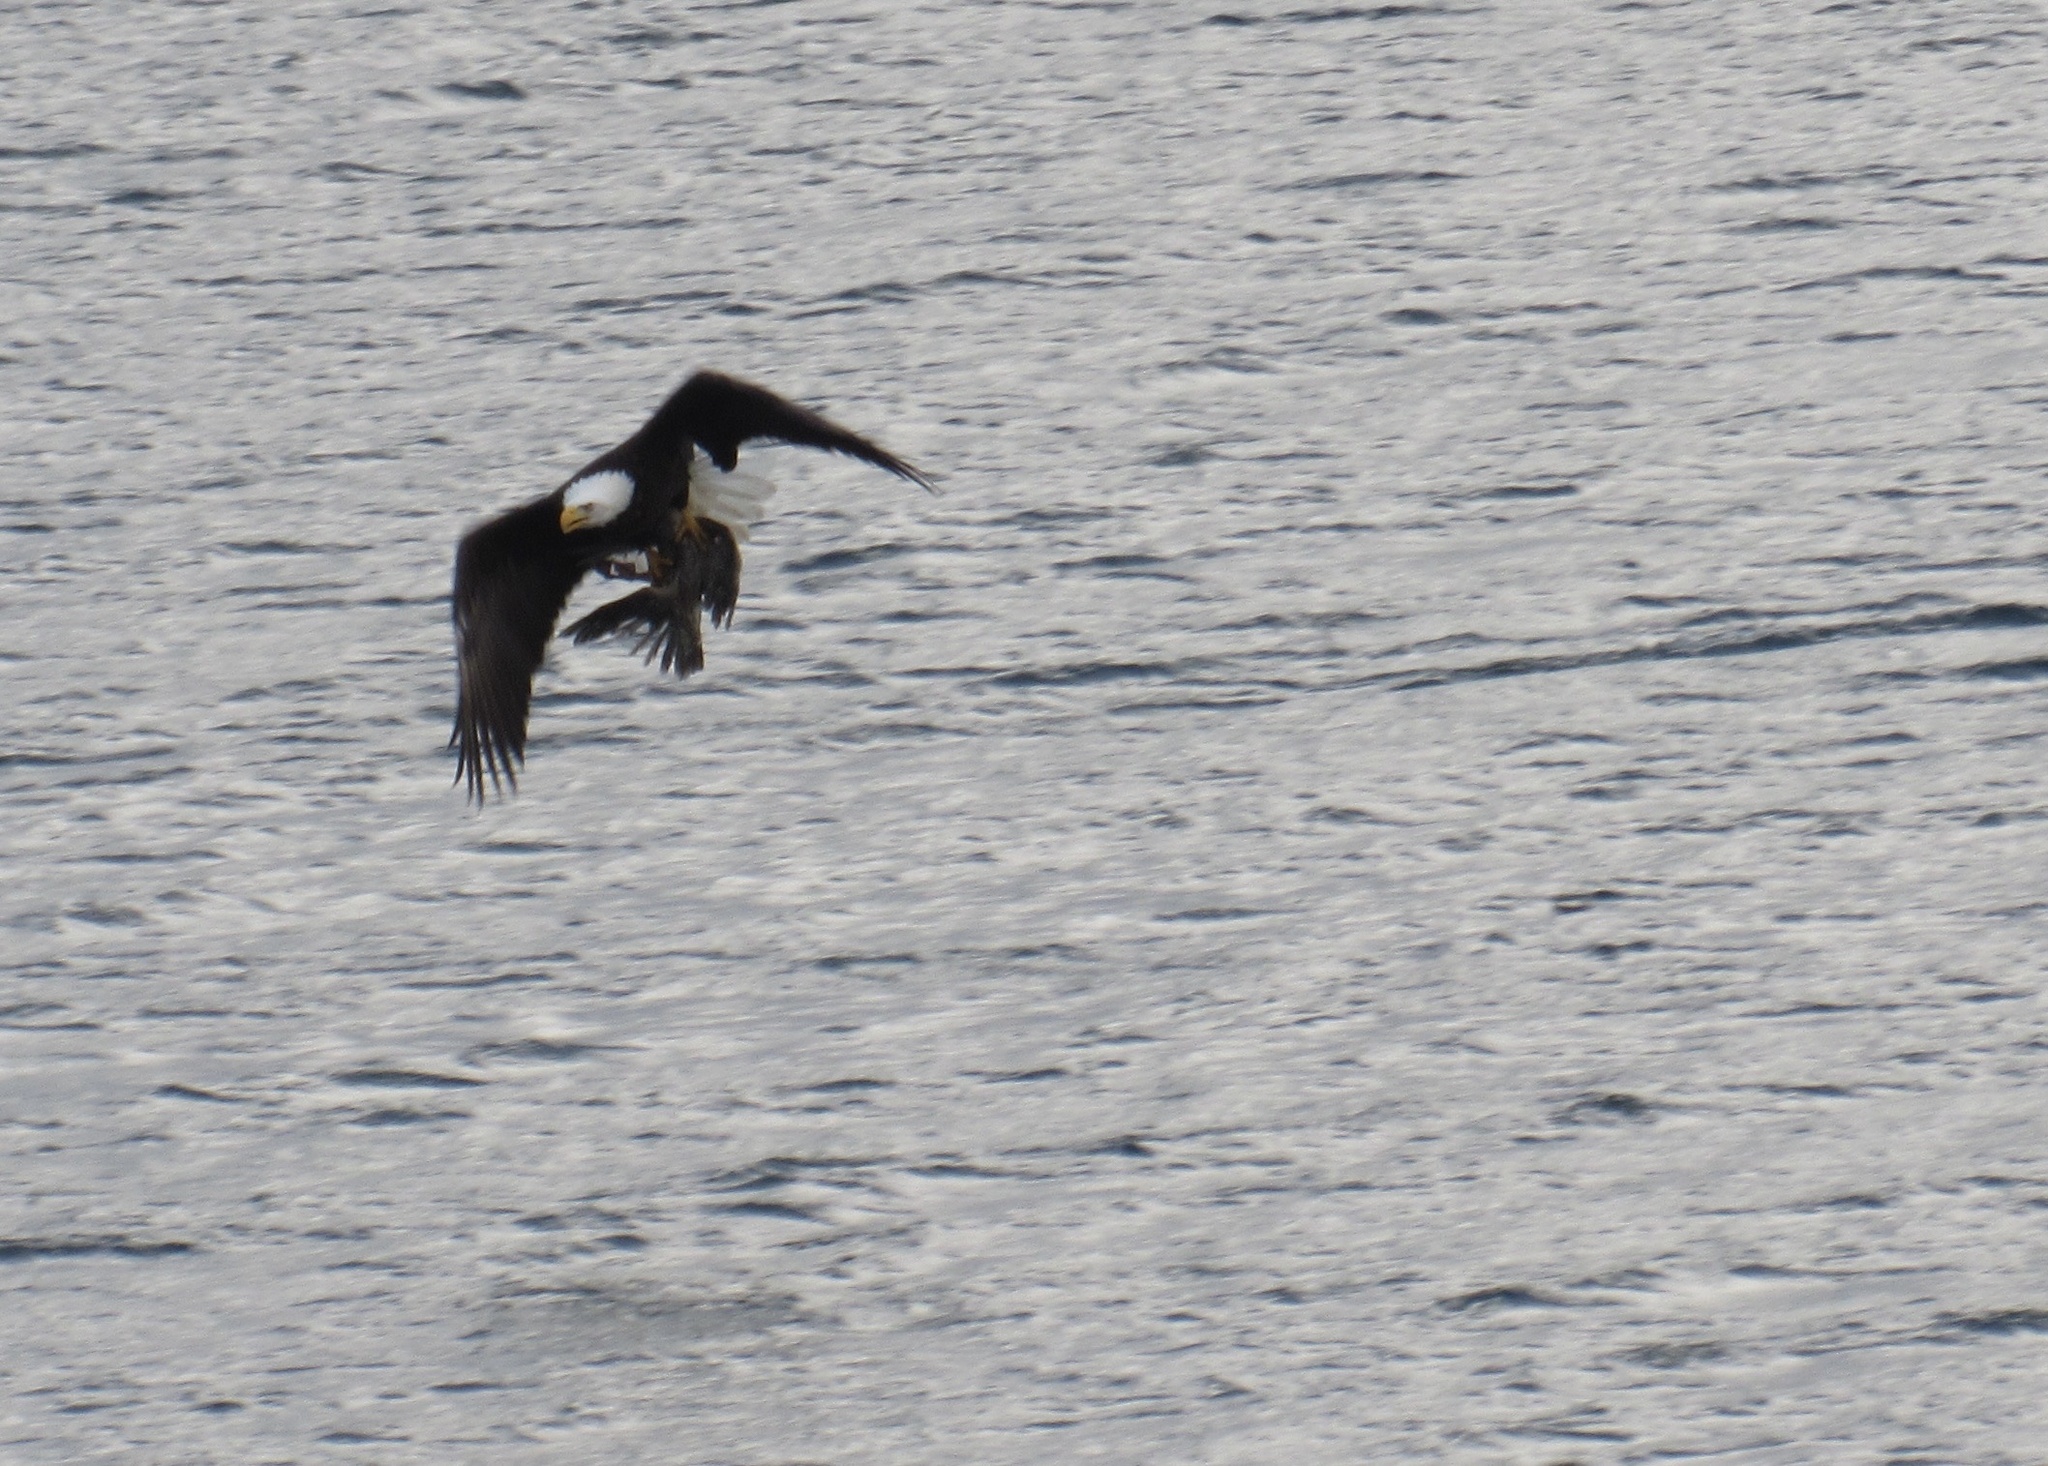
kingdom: Animalia
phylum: Chordata
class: Aves
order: Accipitriformes
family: Accipitridae
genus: Haliaeetus
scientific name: Haliaeetus leucocephalus
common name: Bald eagle
